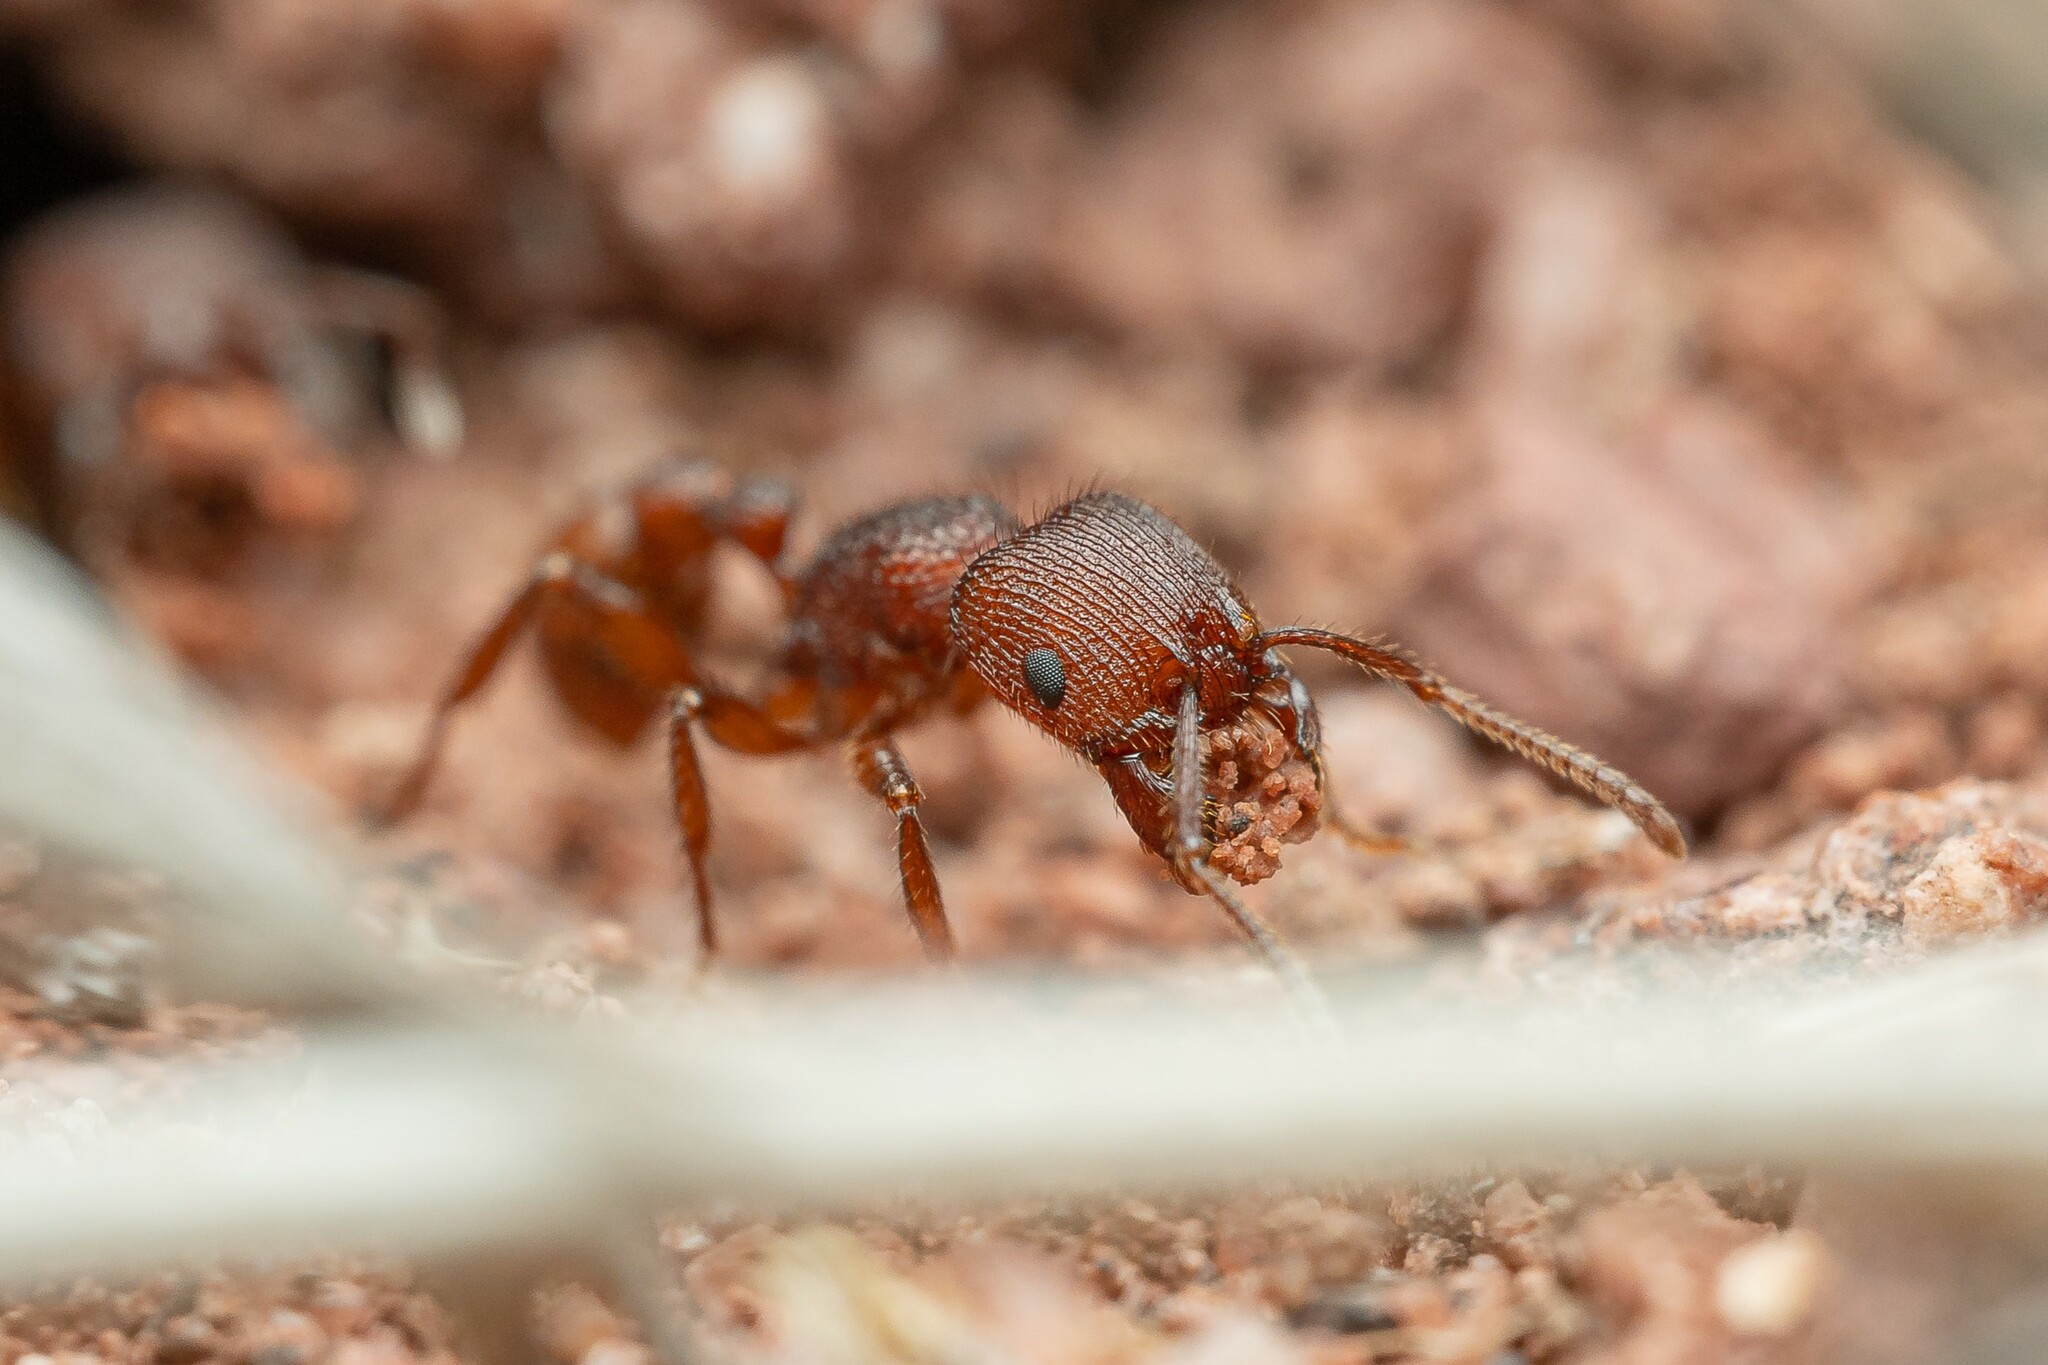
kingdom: Animalia
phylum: Arthropoda
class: Insecta
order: Hymenoptera
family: Formicidae
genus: Pogonomyrmex
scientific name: Pogonomyrmex imberbiculus
